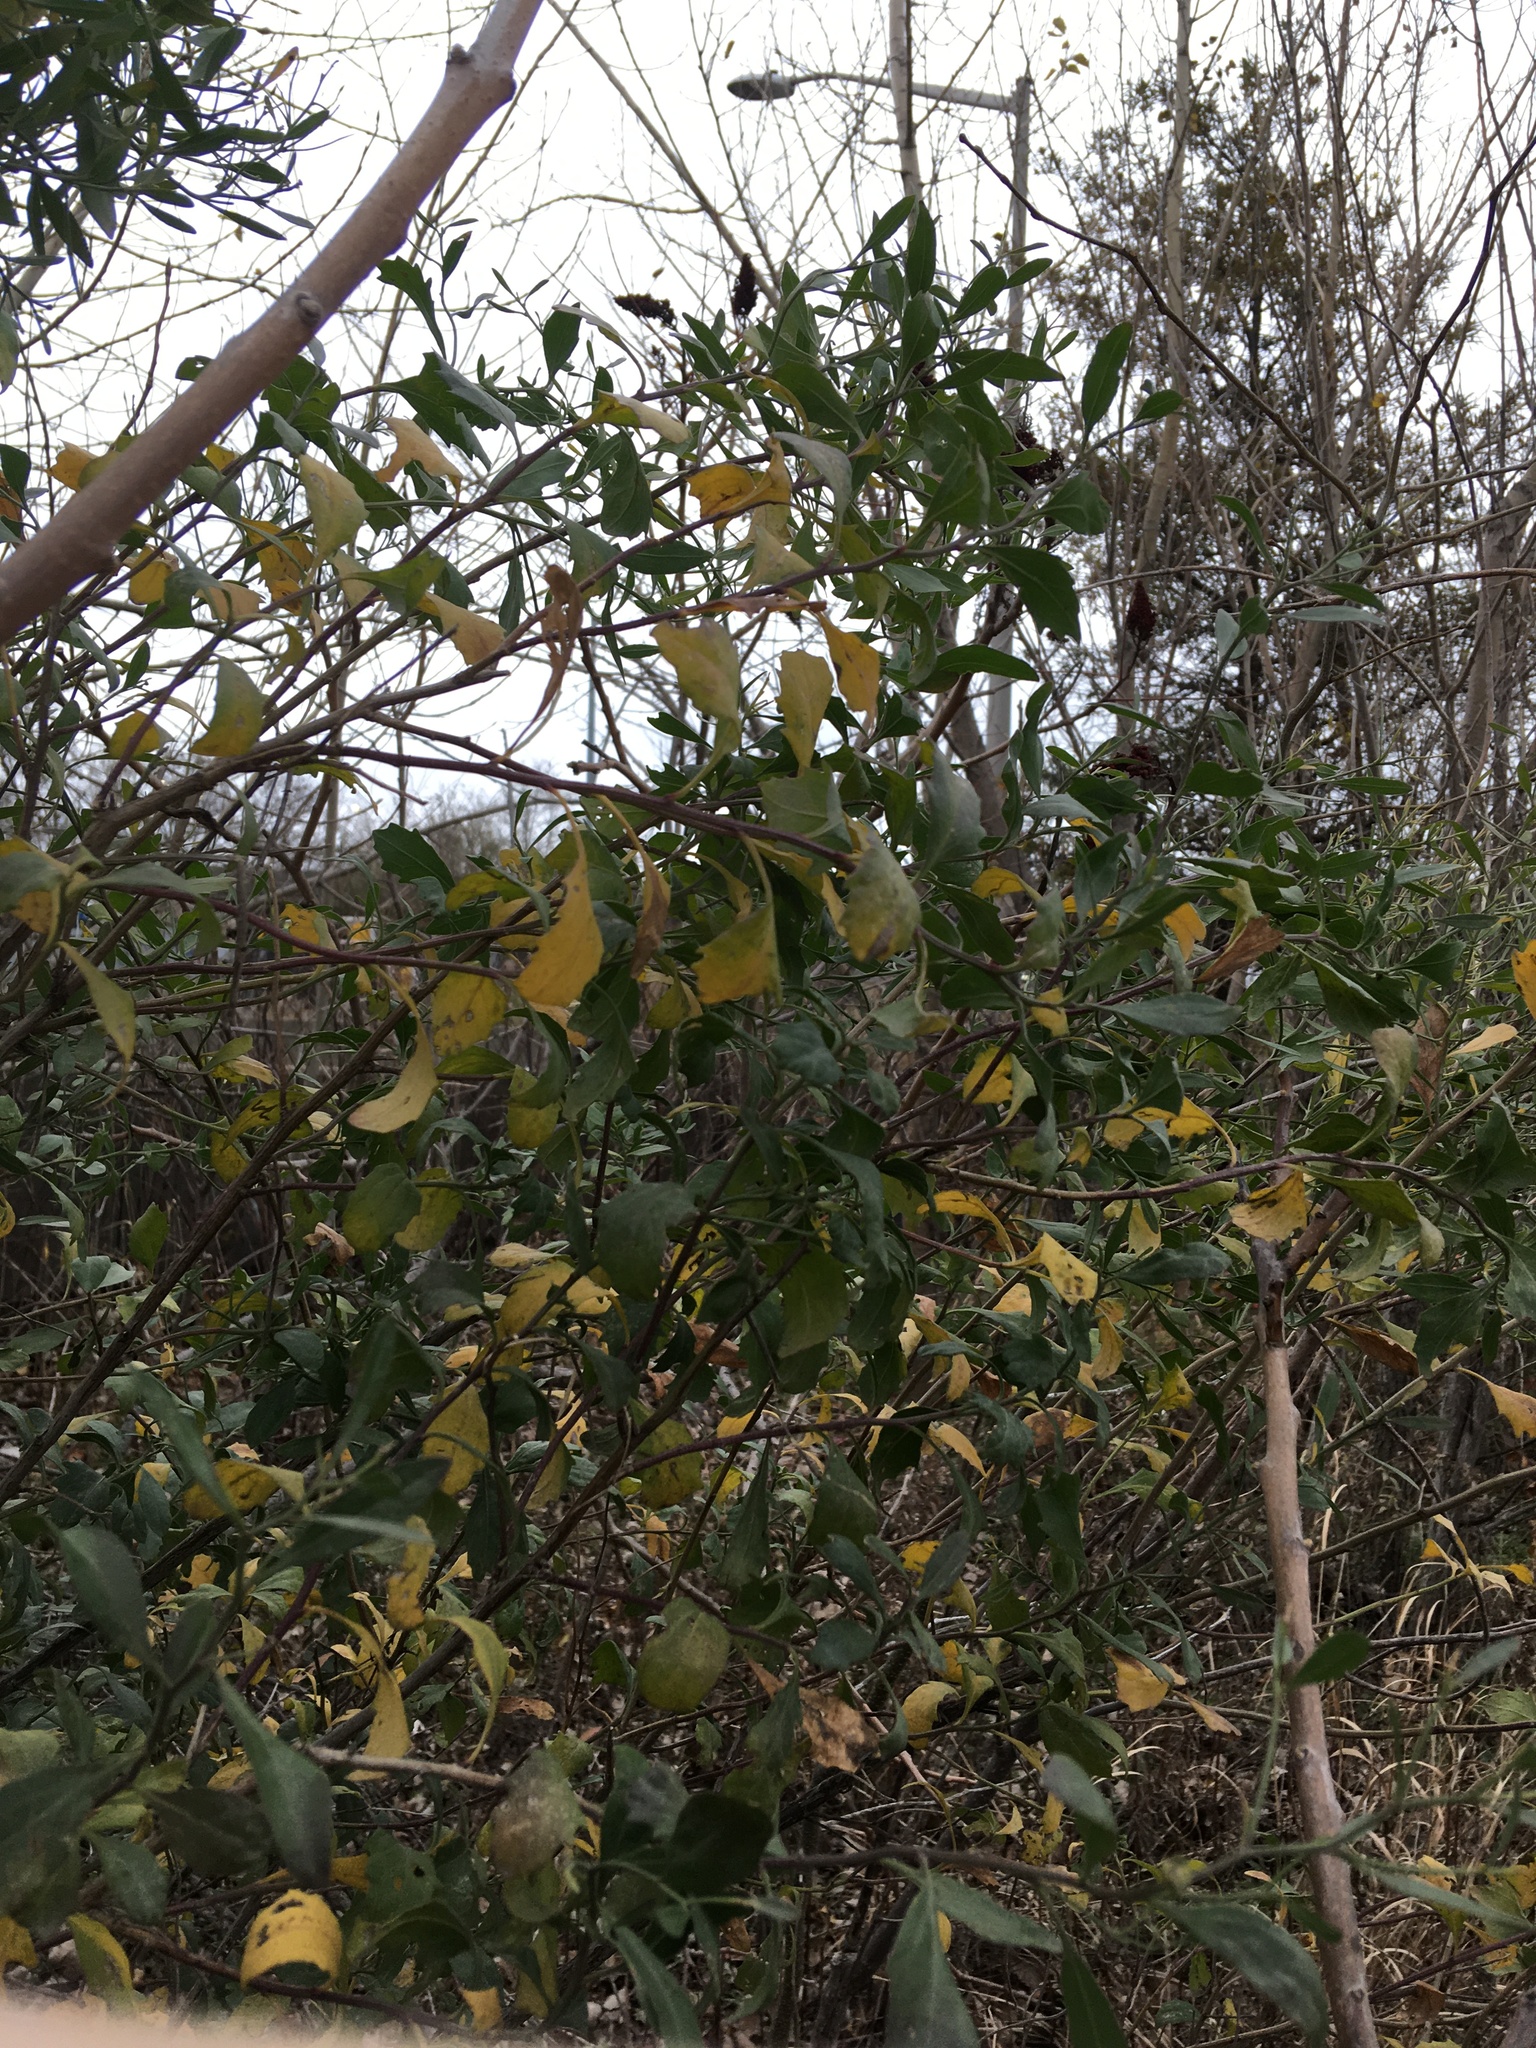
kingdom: Plantae
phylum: Tracheophyta
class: Magnoliopsida
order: Asterales
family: Asteraceae
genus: Baccharis
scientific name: Baccharis halimifolia
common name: Eastern baccharis
